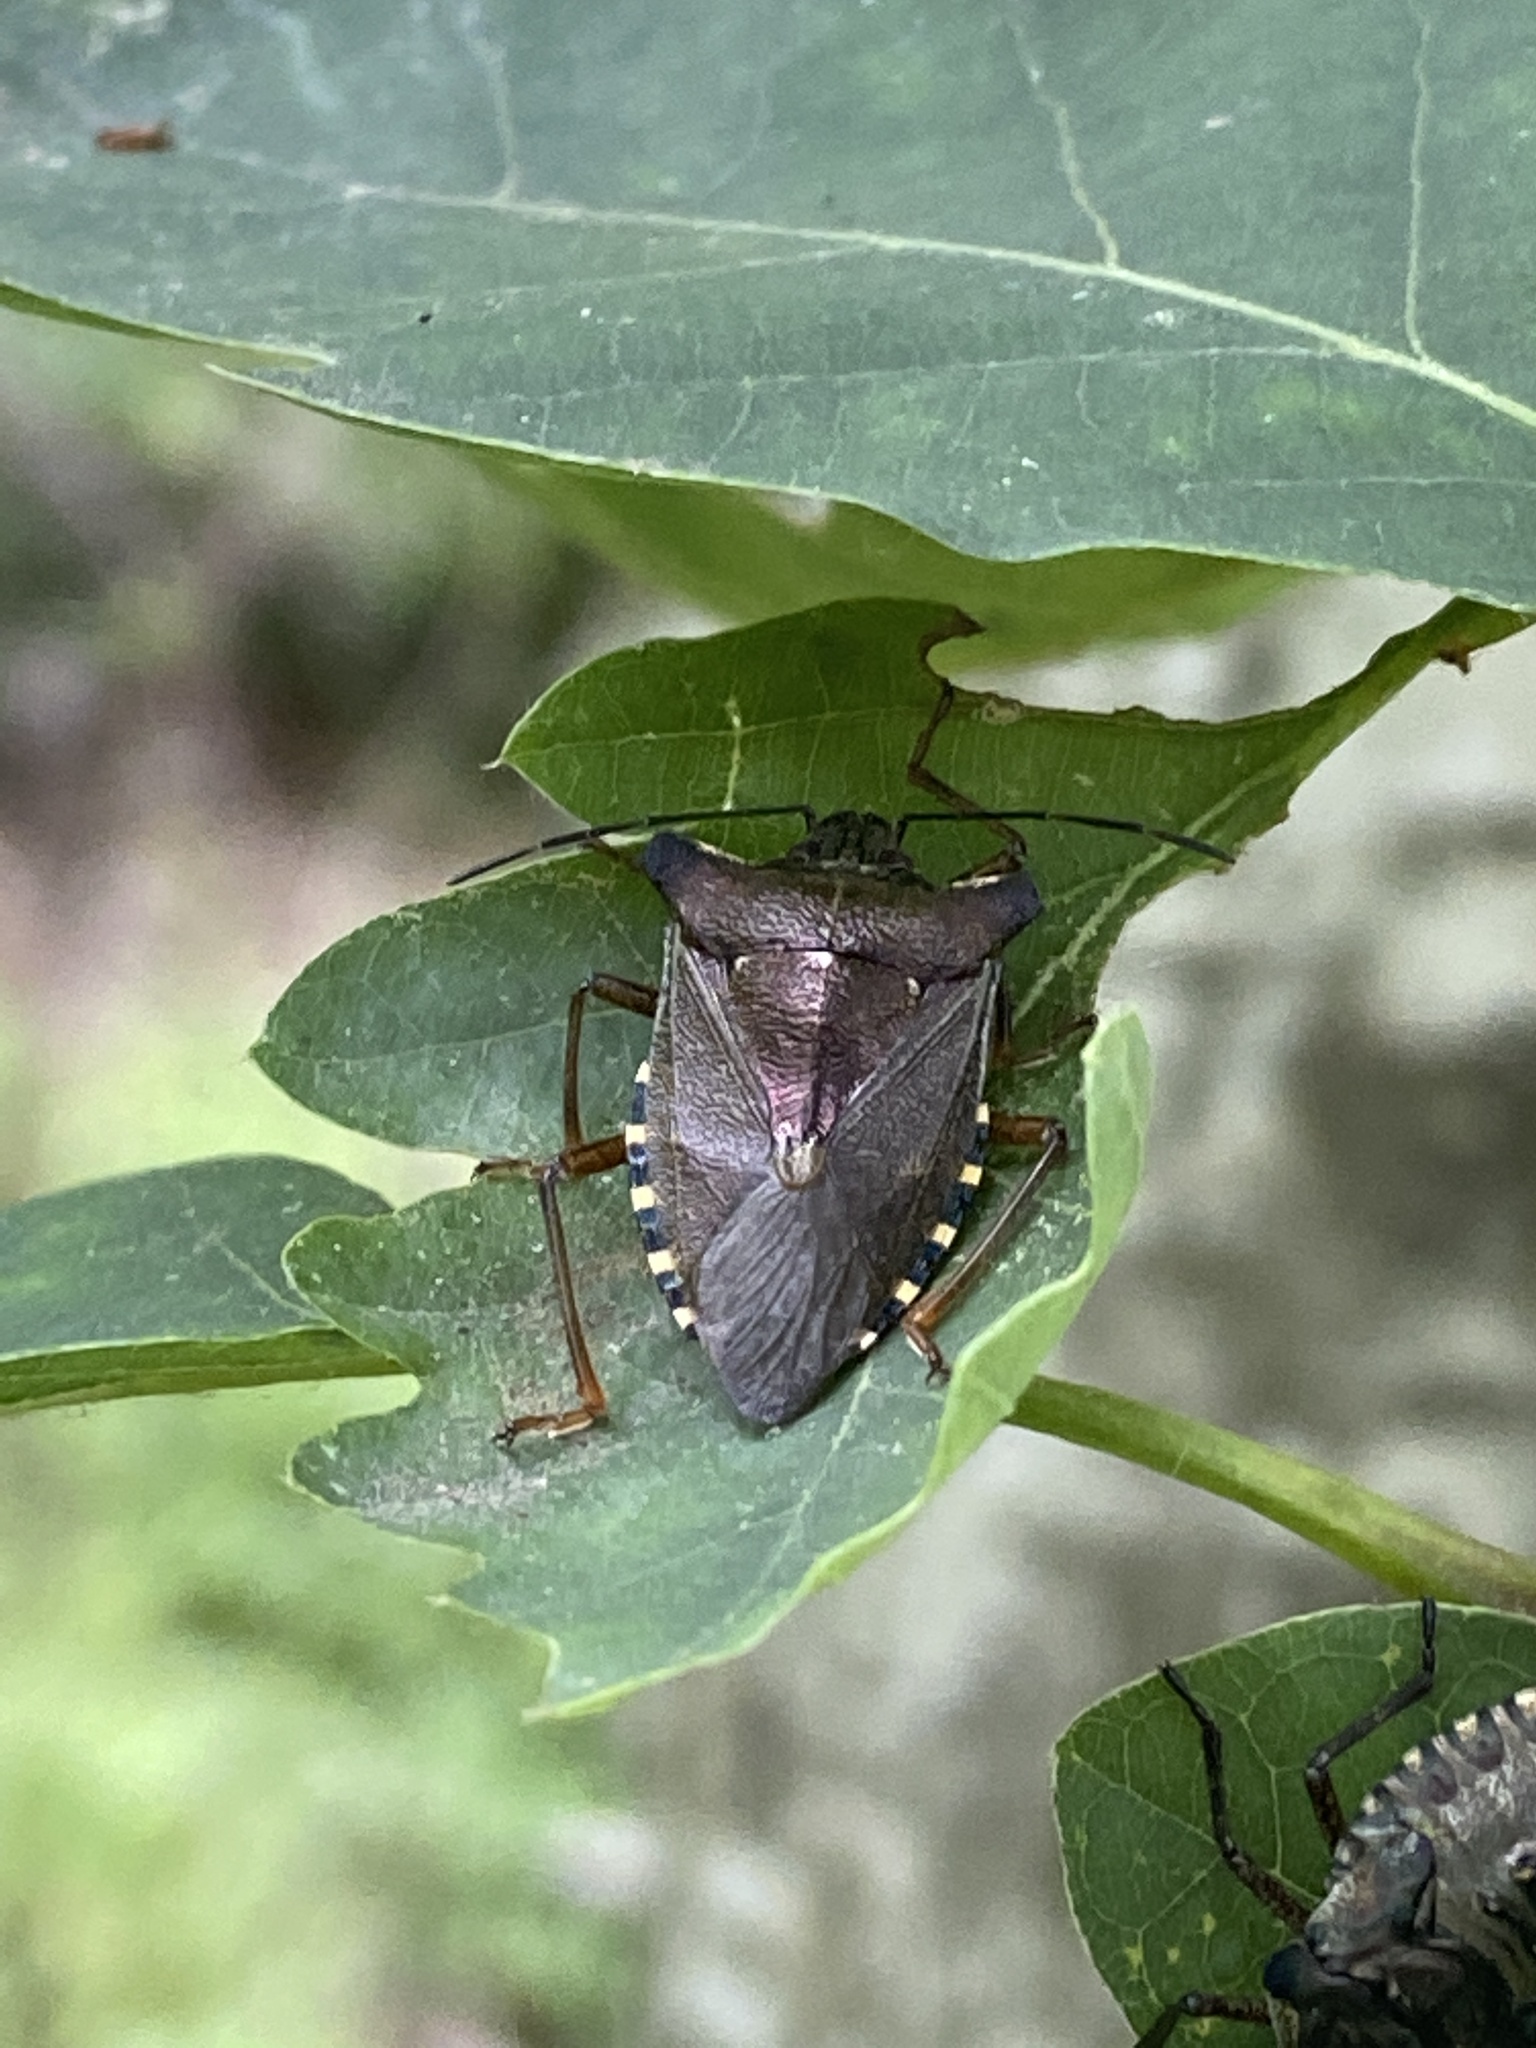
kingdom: Animalia
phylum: Arthropoda
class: Insecta
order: Hemiptera
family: Pentatomidae
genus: Pentatoma
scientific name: Pentatoma rufipes
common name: Forest bug
